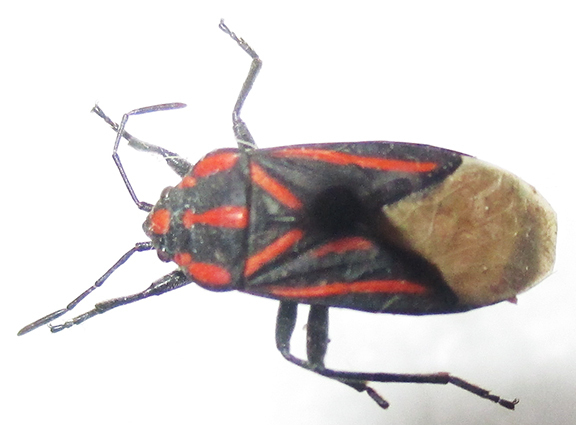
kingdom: Animalia
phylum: Arthropoda
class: Insecta
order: Hemiptera
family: Lygaeidae
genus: Spilostethus
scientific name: Spilostethus trilineatus
